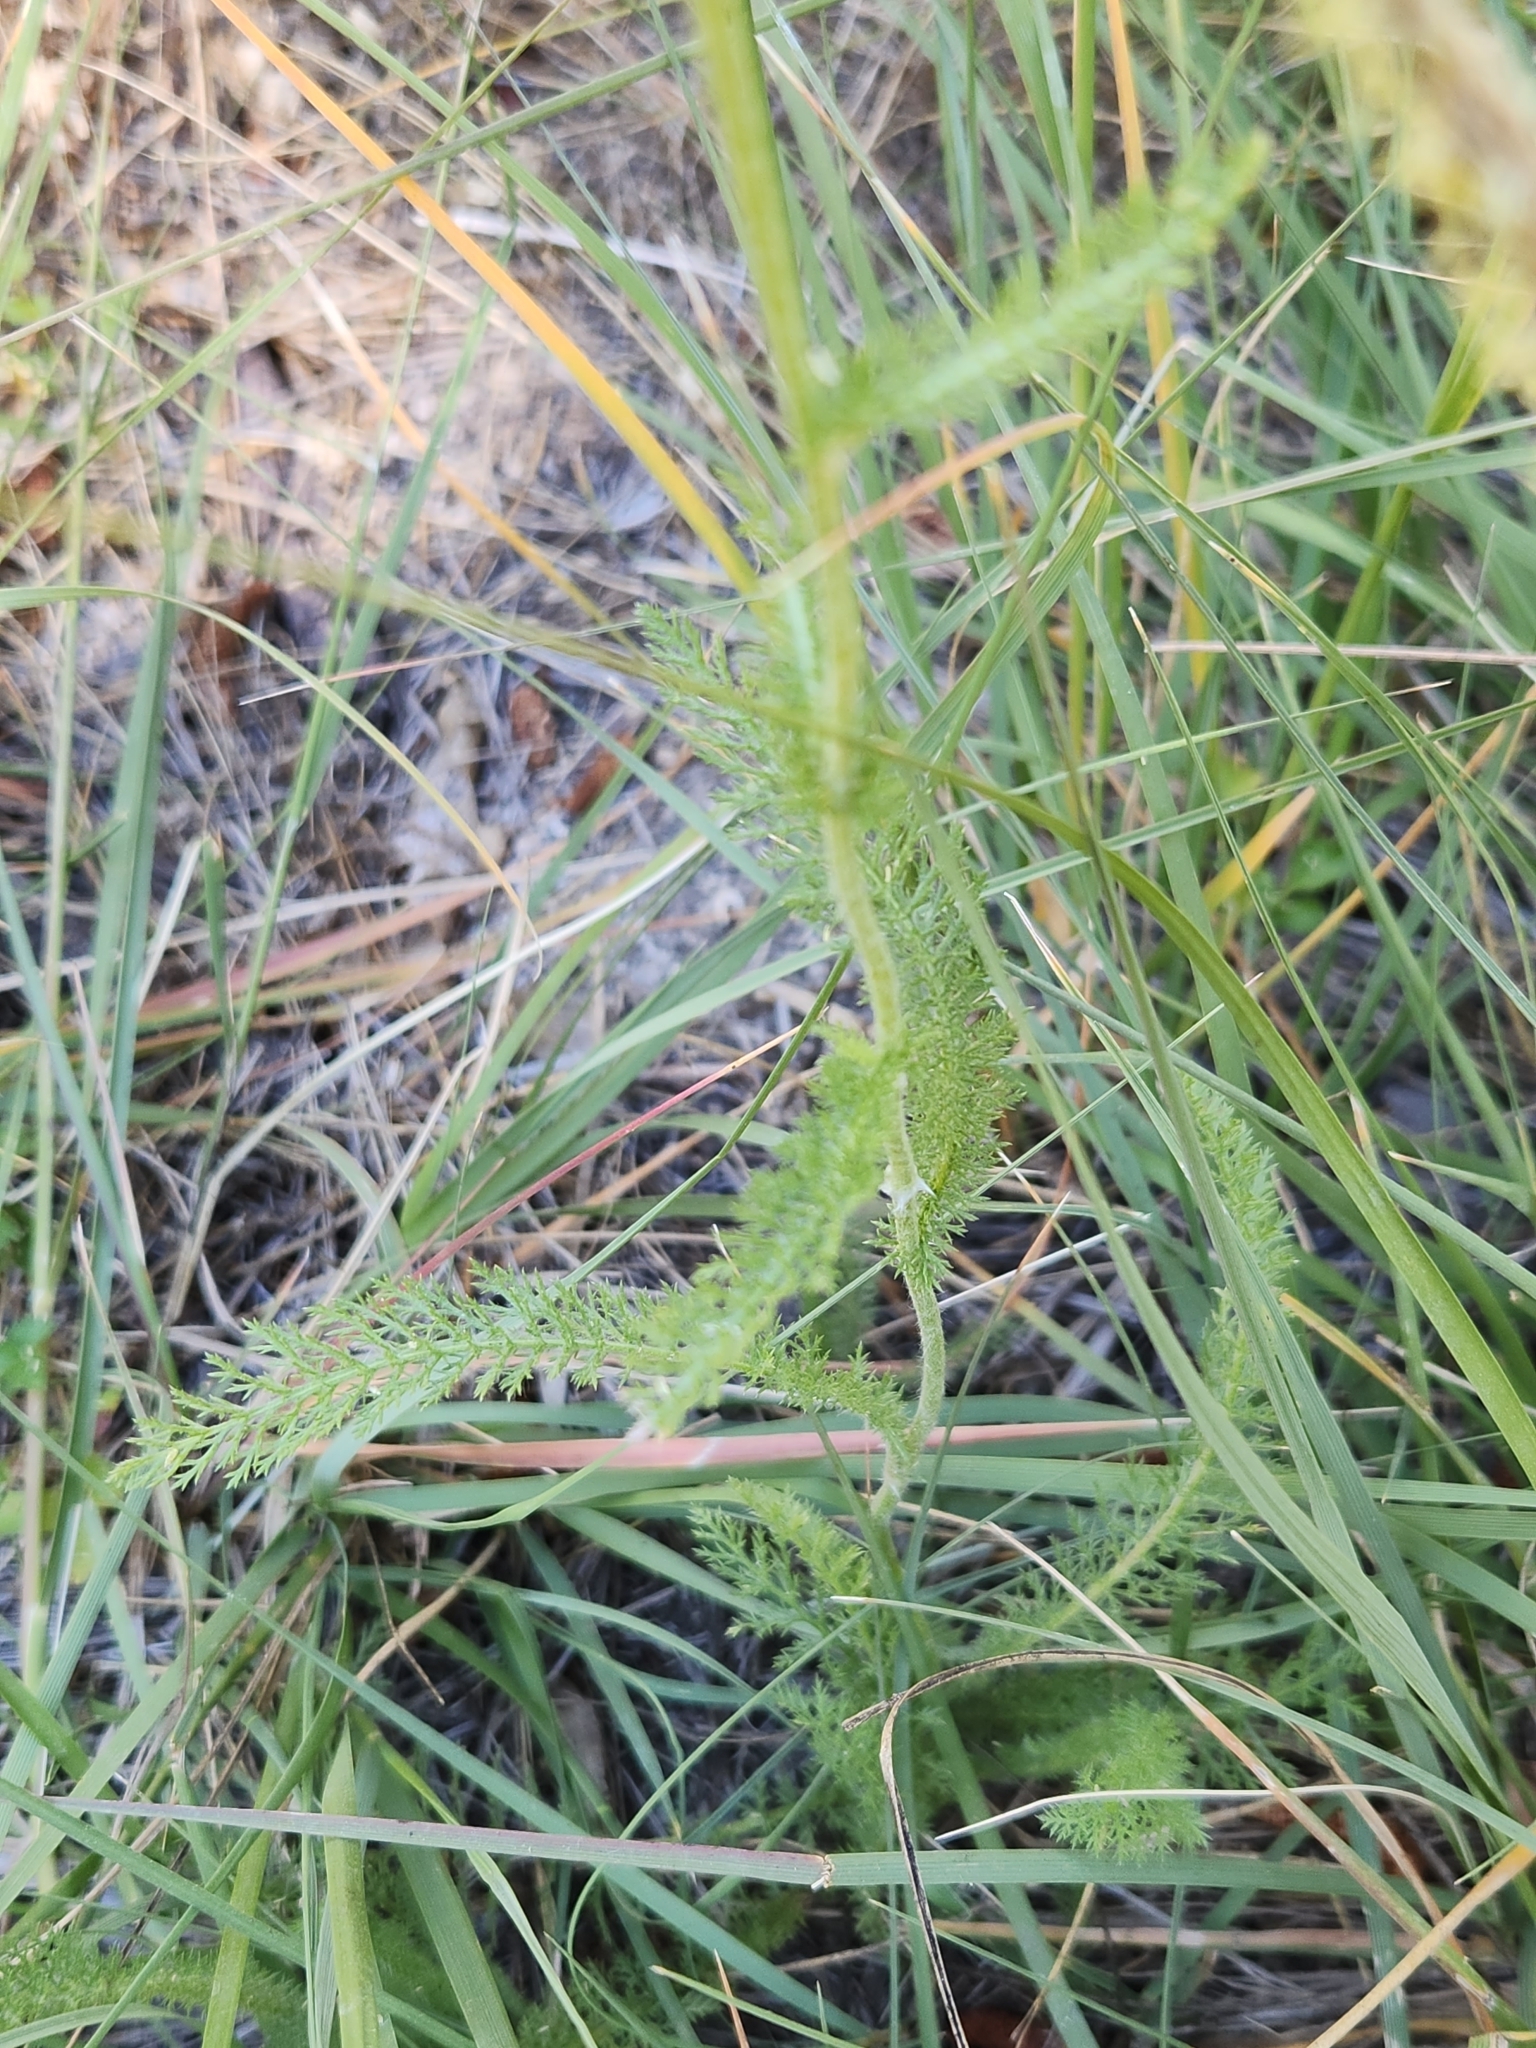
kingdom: Plantae
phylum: Tracheophyta
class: Magnoliopsida
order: Asterales
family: Asteraceae
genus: Achillea
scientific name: Achillea millefolium
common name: Yarrow
